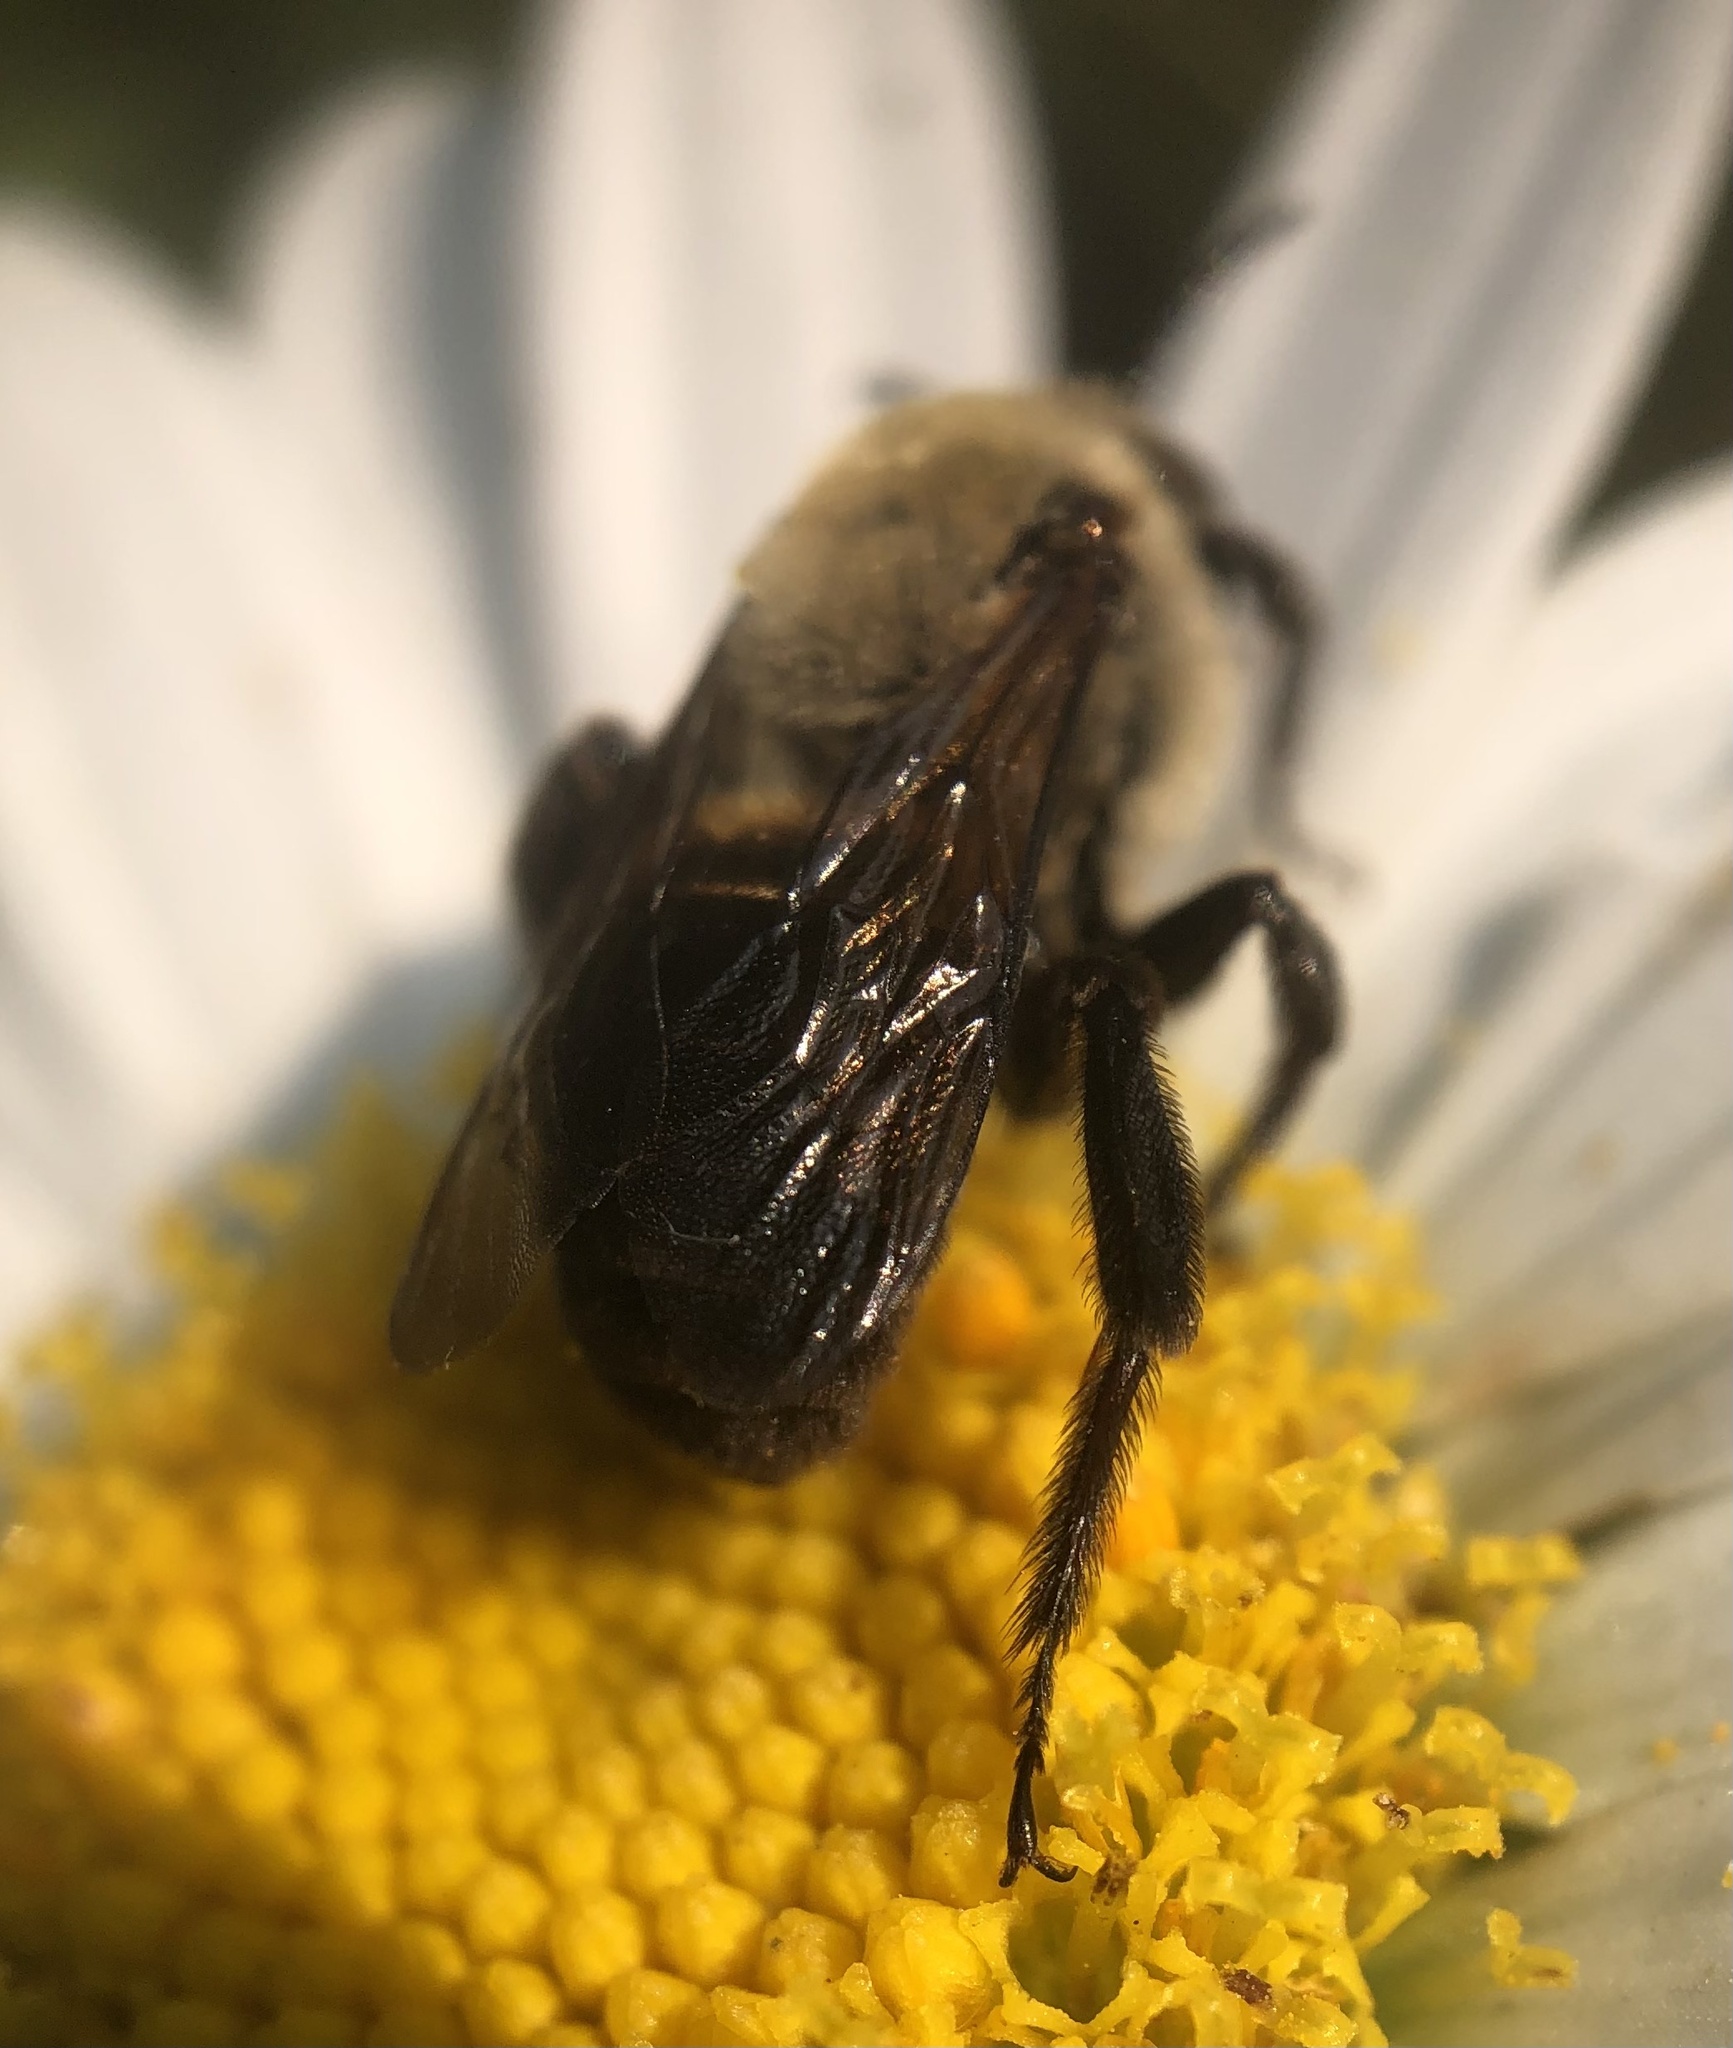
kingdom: Animalia
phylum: Arthropoda
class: Insecta
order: Hymenoptera
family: Apidae
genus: Ptilothrix
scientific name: Ptilothrix bombiformis
